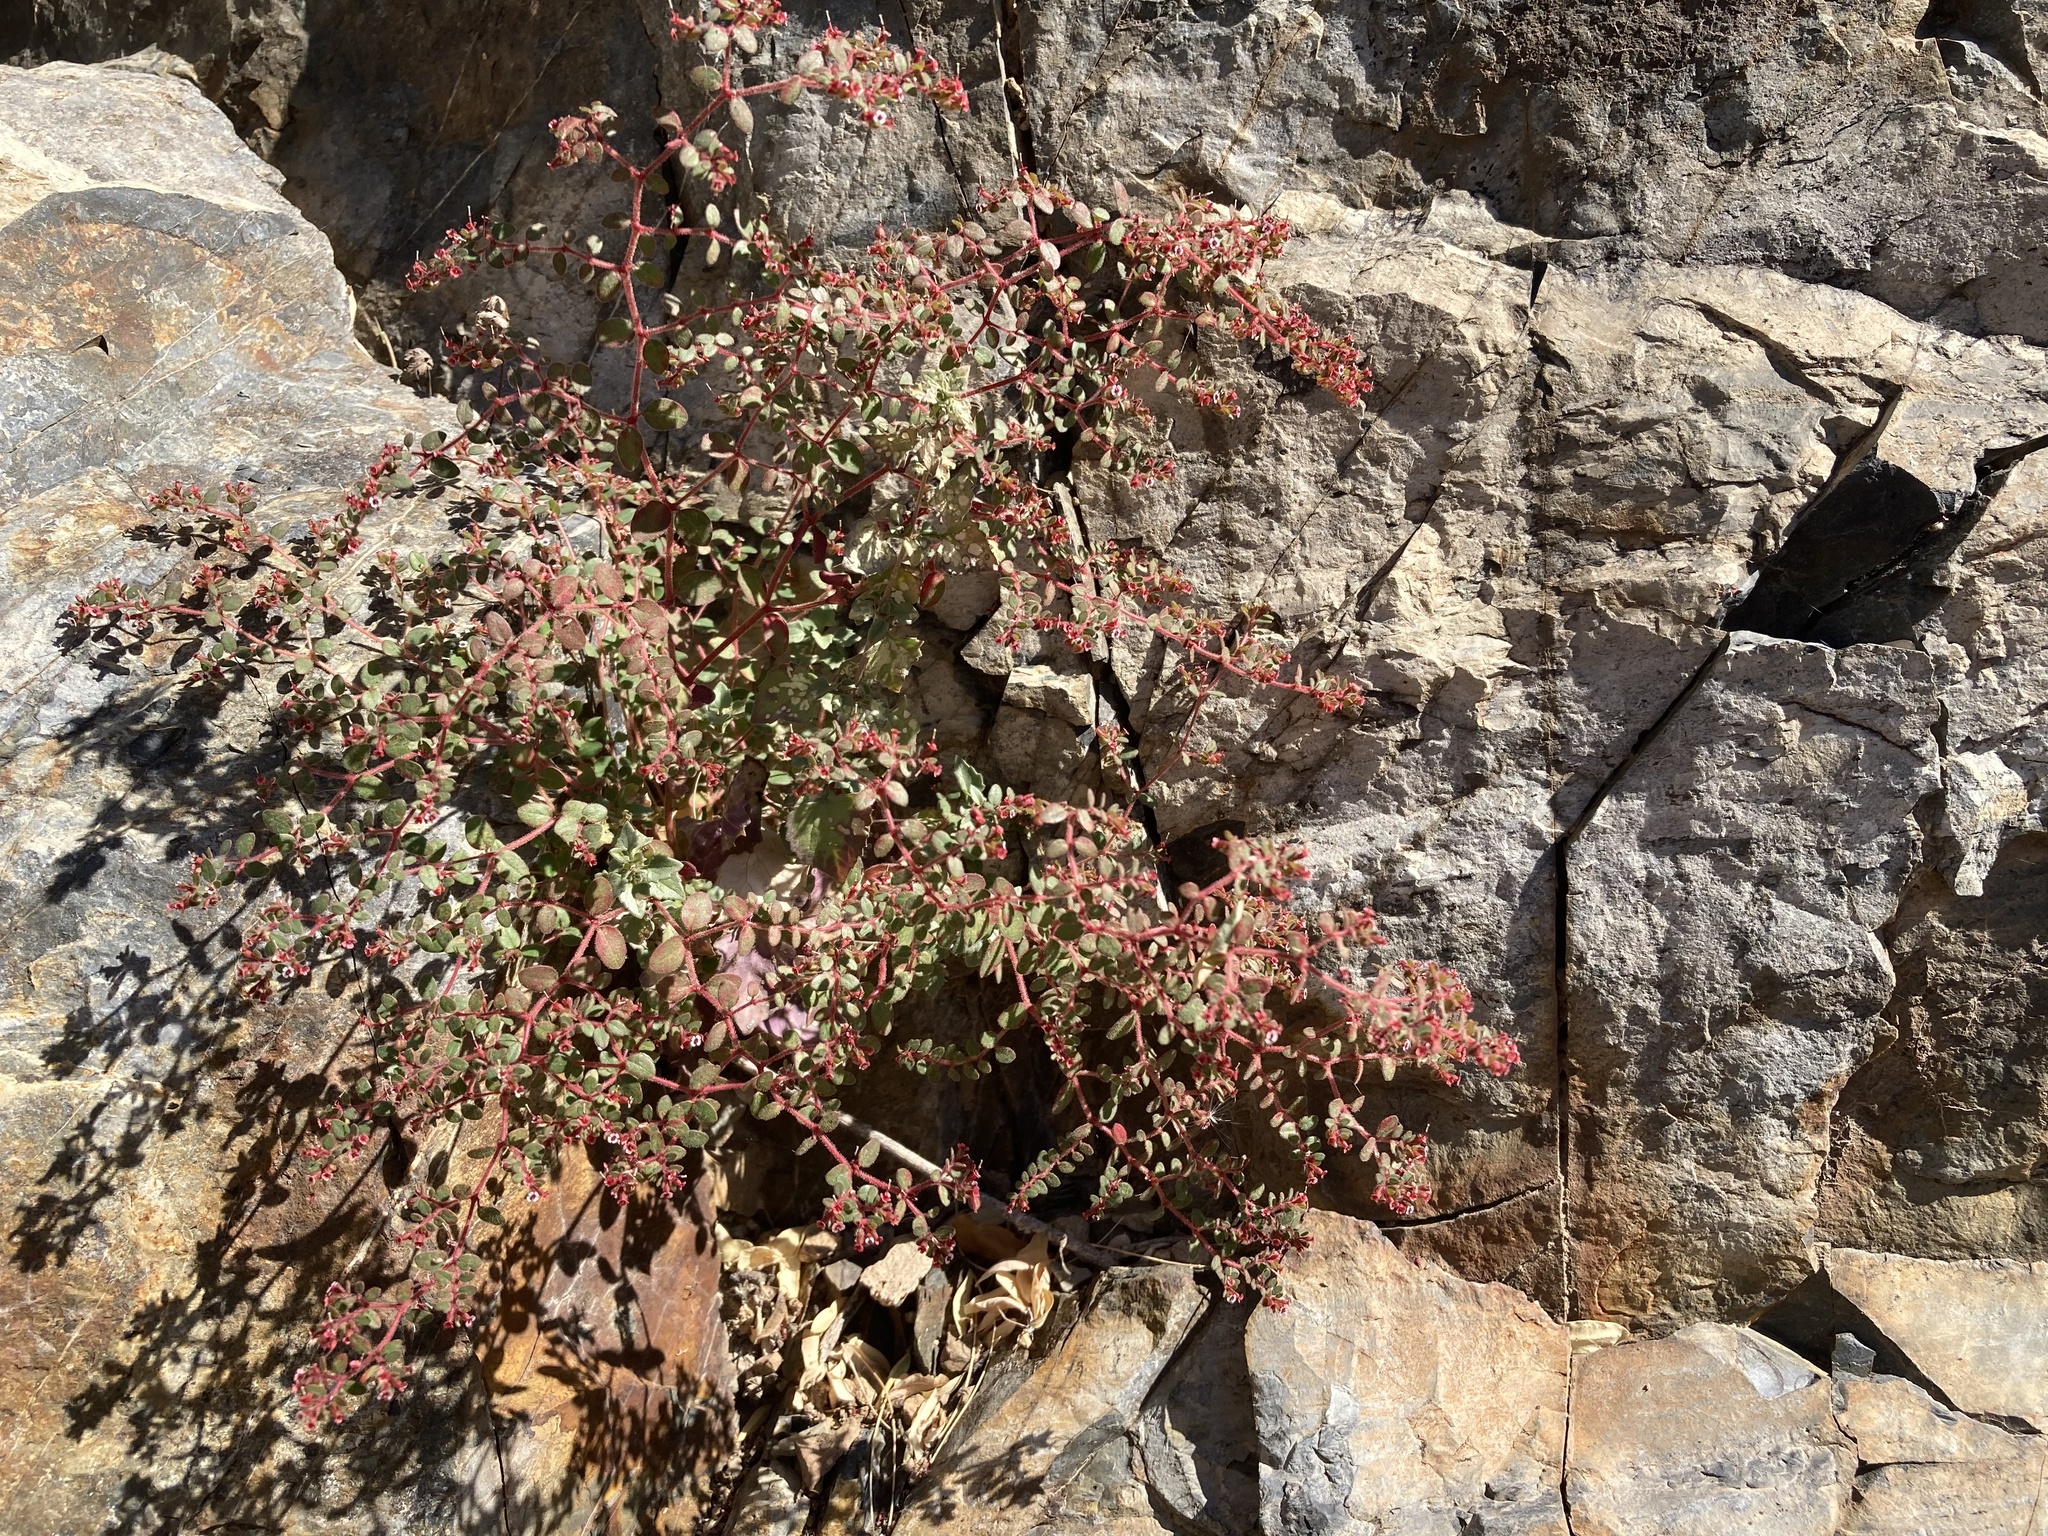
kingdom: Plantae
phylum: Tracheophyta
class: Magnoliopsida
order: Malpighiales
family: Euphorbiaceae
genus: Euphorbia
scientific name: Euphorbia arizonica
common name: Arizona spurge
